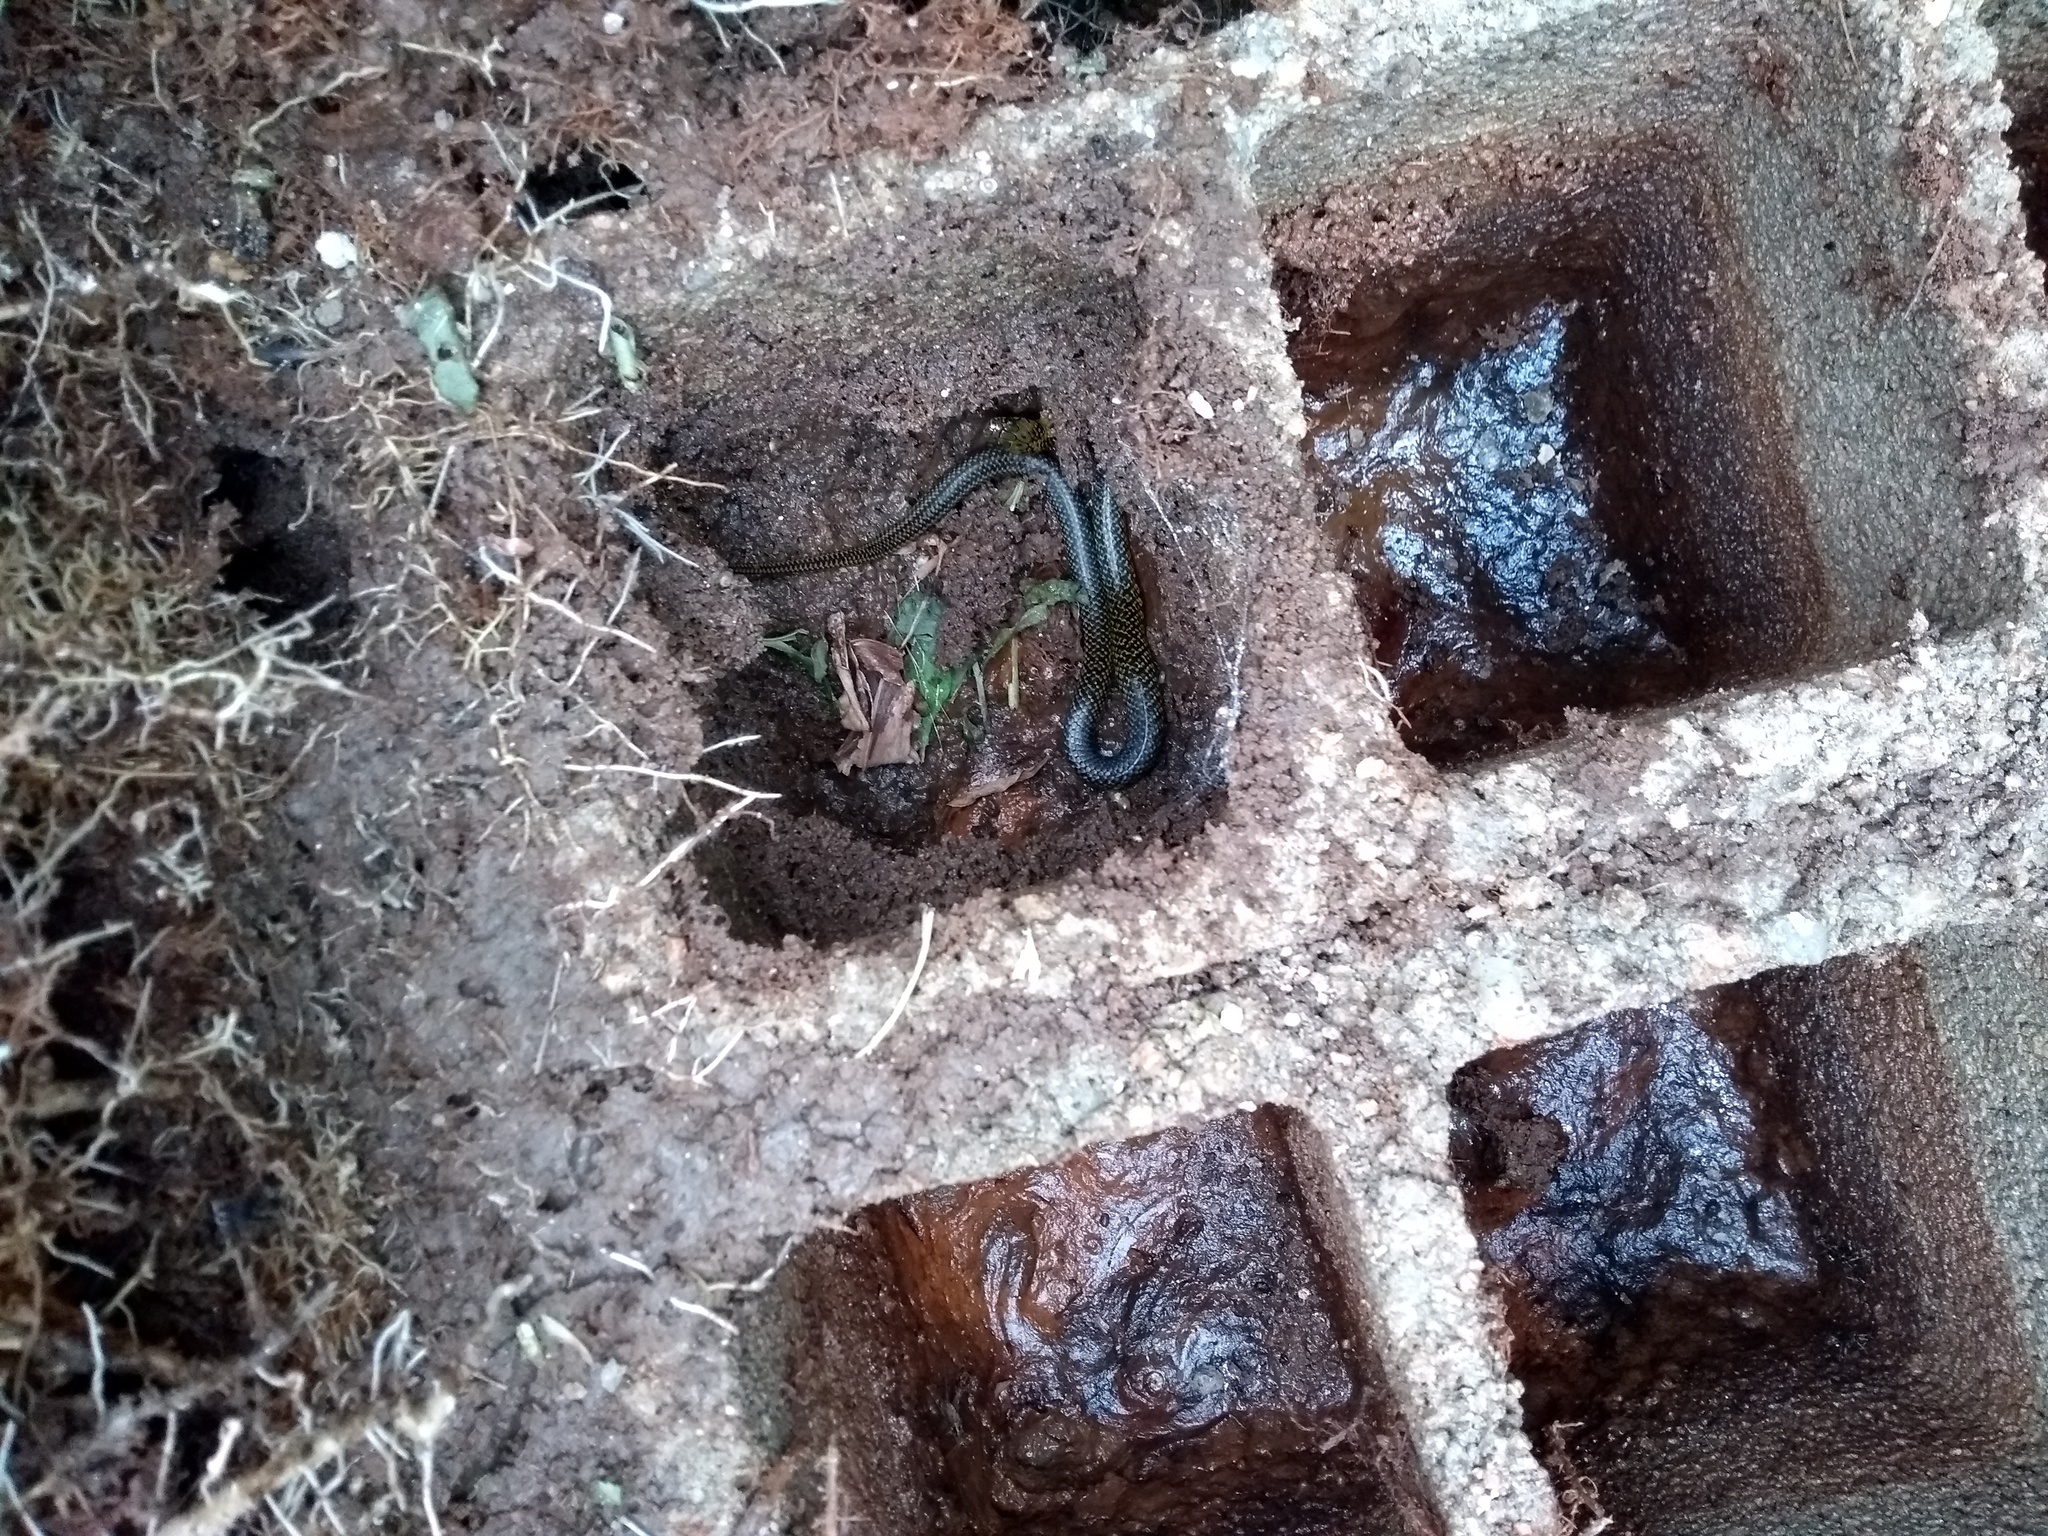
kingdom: Animalia
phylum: Chordata
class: Squamata
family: Colubridae
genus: Erythrolamprus
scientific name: Erythrolamprus miliaris
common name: Military ground snake
